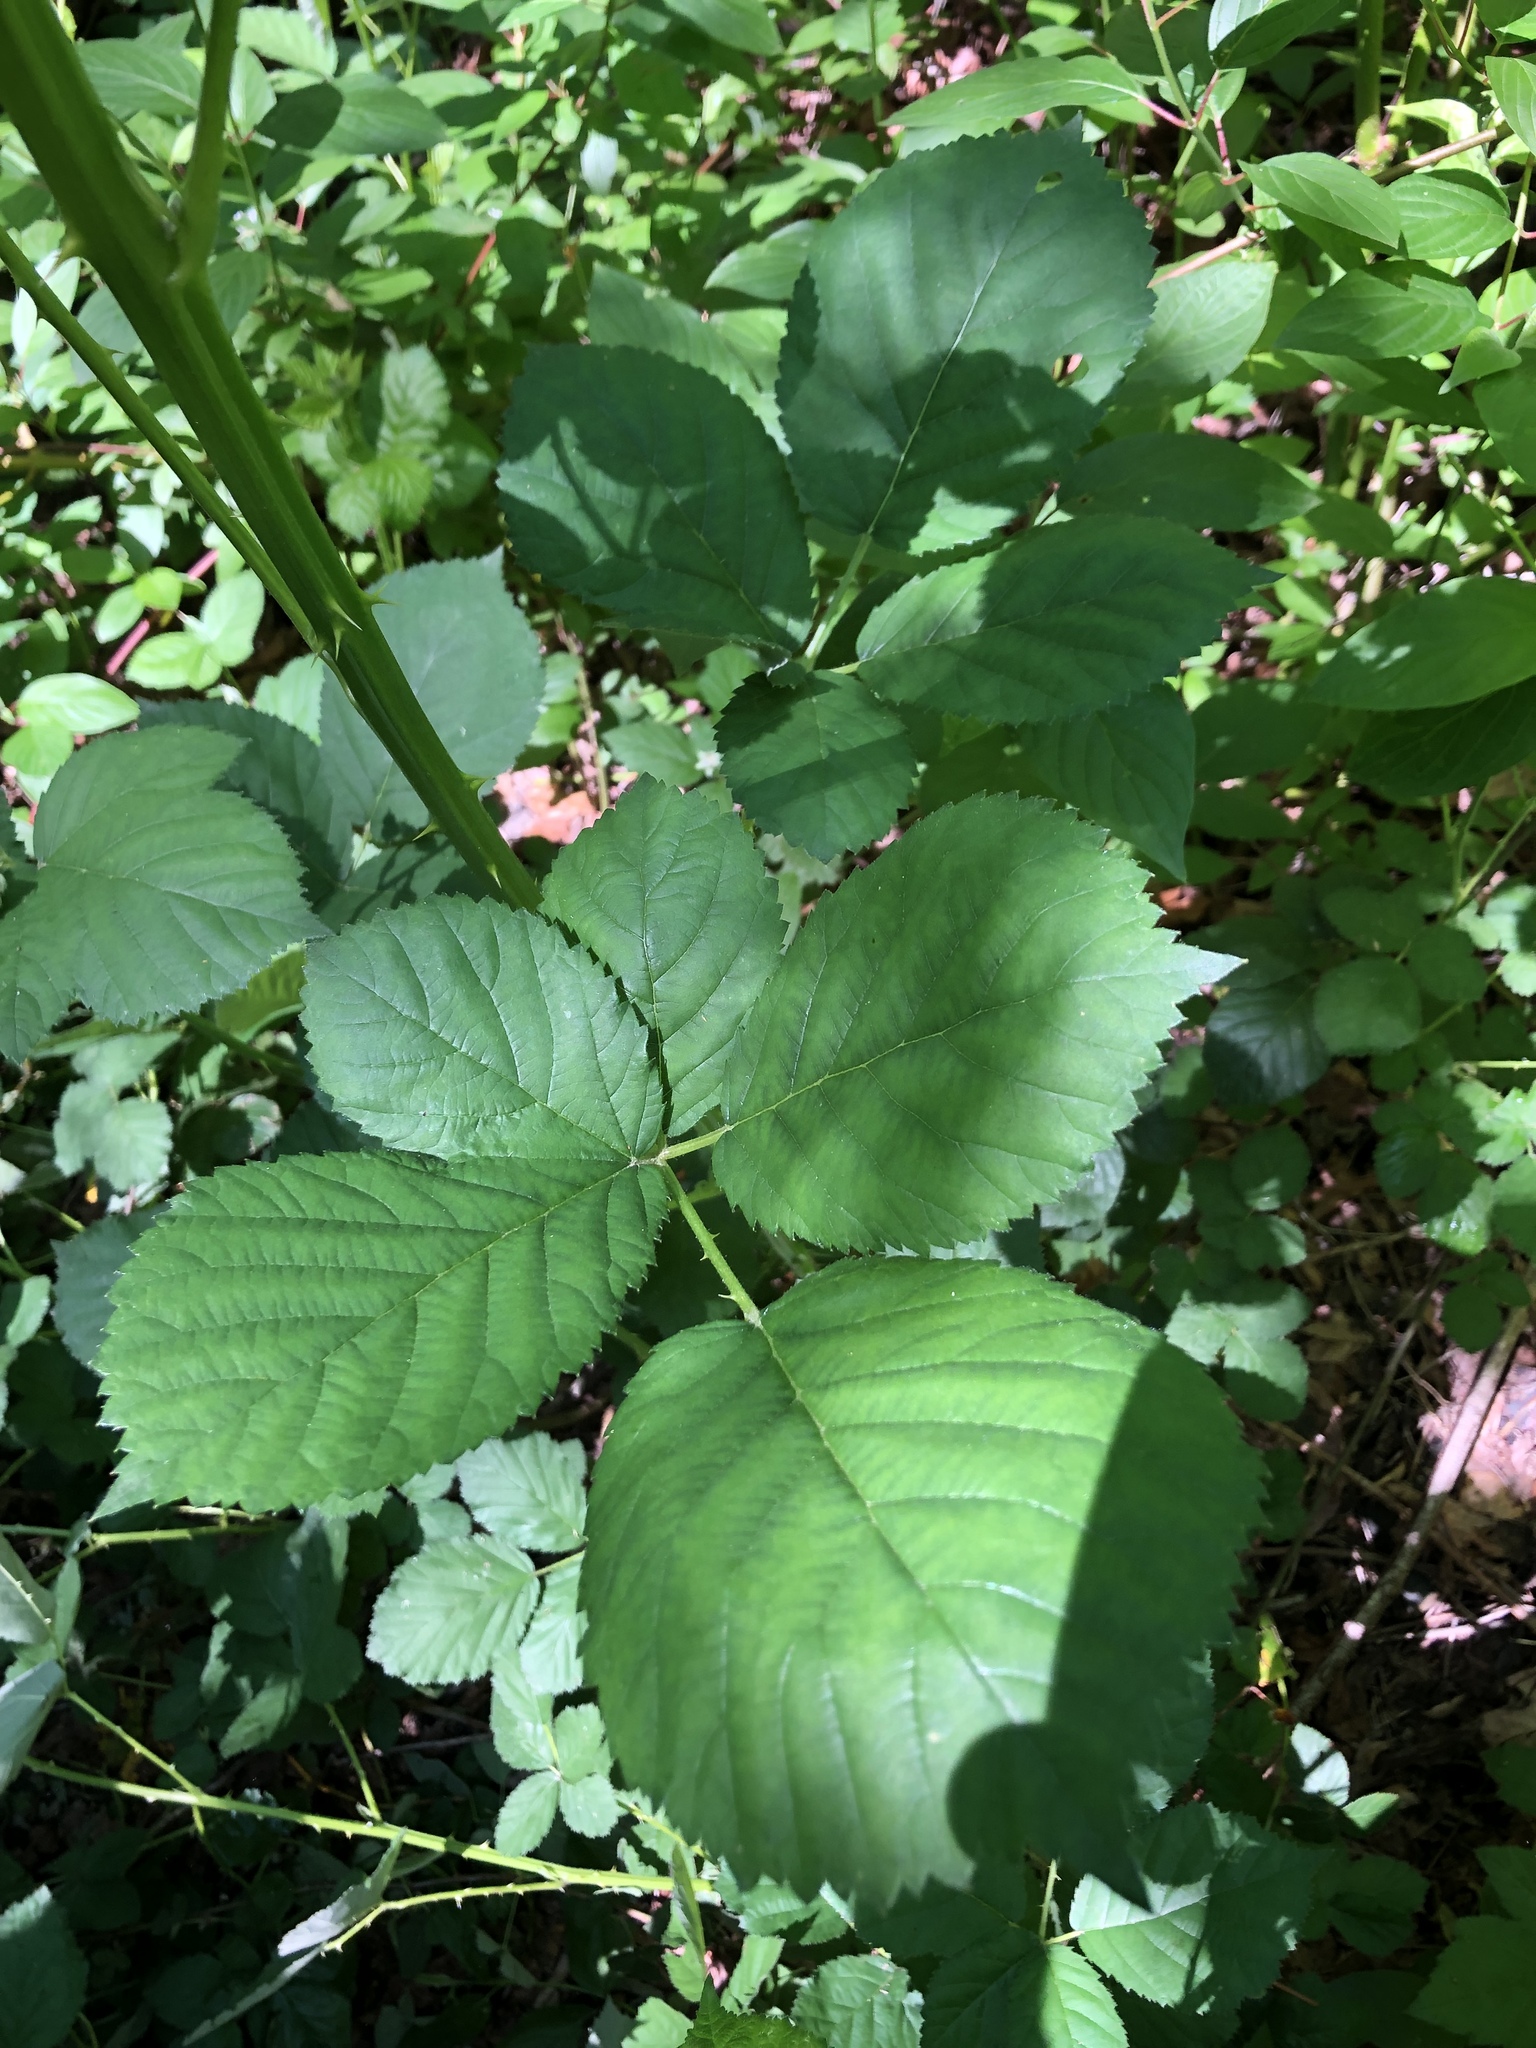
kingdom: Plantae
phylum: Tracheophyta
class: Magnoliopsida
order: Rosales
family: Rosaceae
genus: Rubus
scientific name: Rubus armeniacus
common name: Himalayan blackberry
